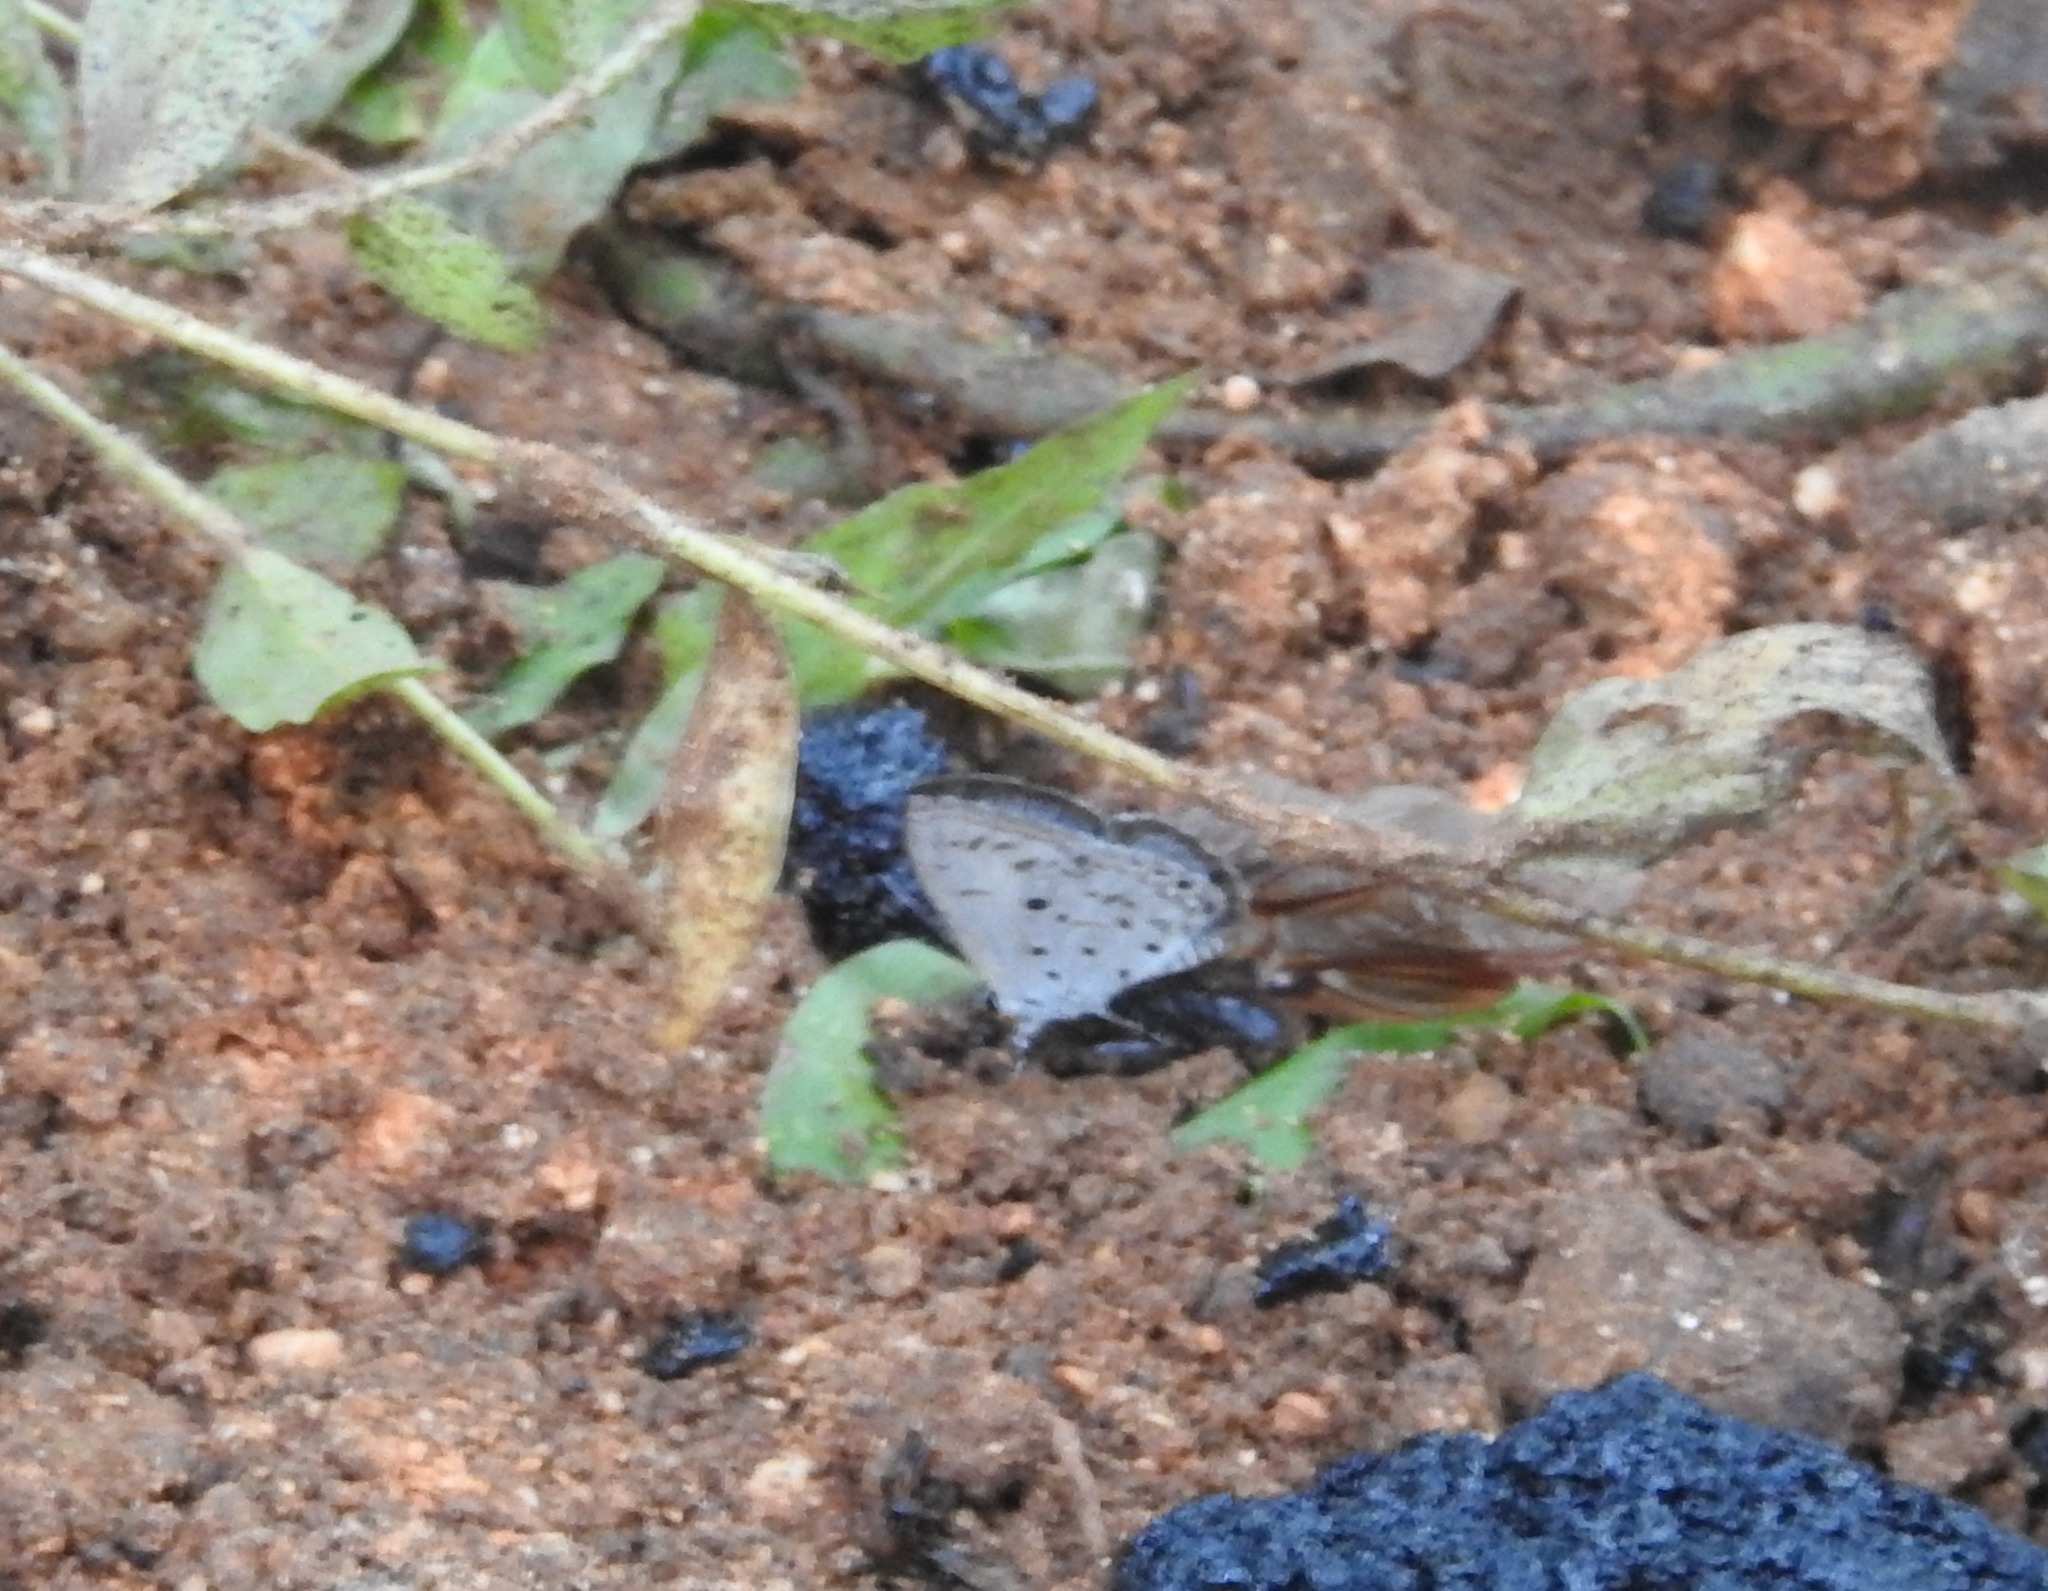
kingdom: Animalia
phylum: Arthropoda
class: Insecta
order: Lepidoptera
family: Lycaenidae
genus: Acytolepis
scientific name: Acytolepis puspa
